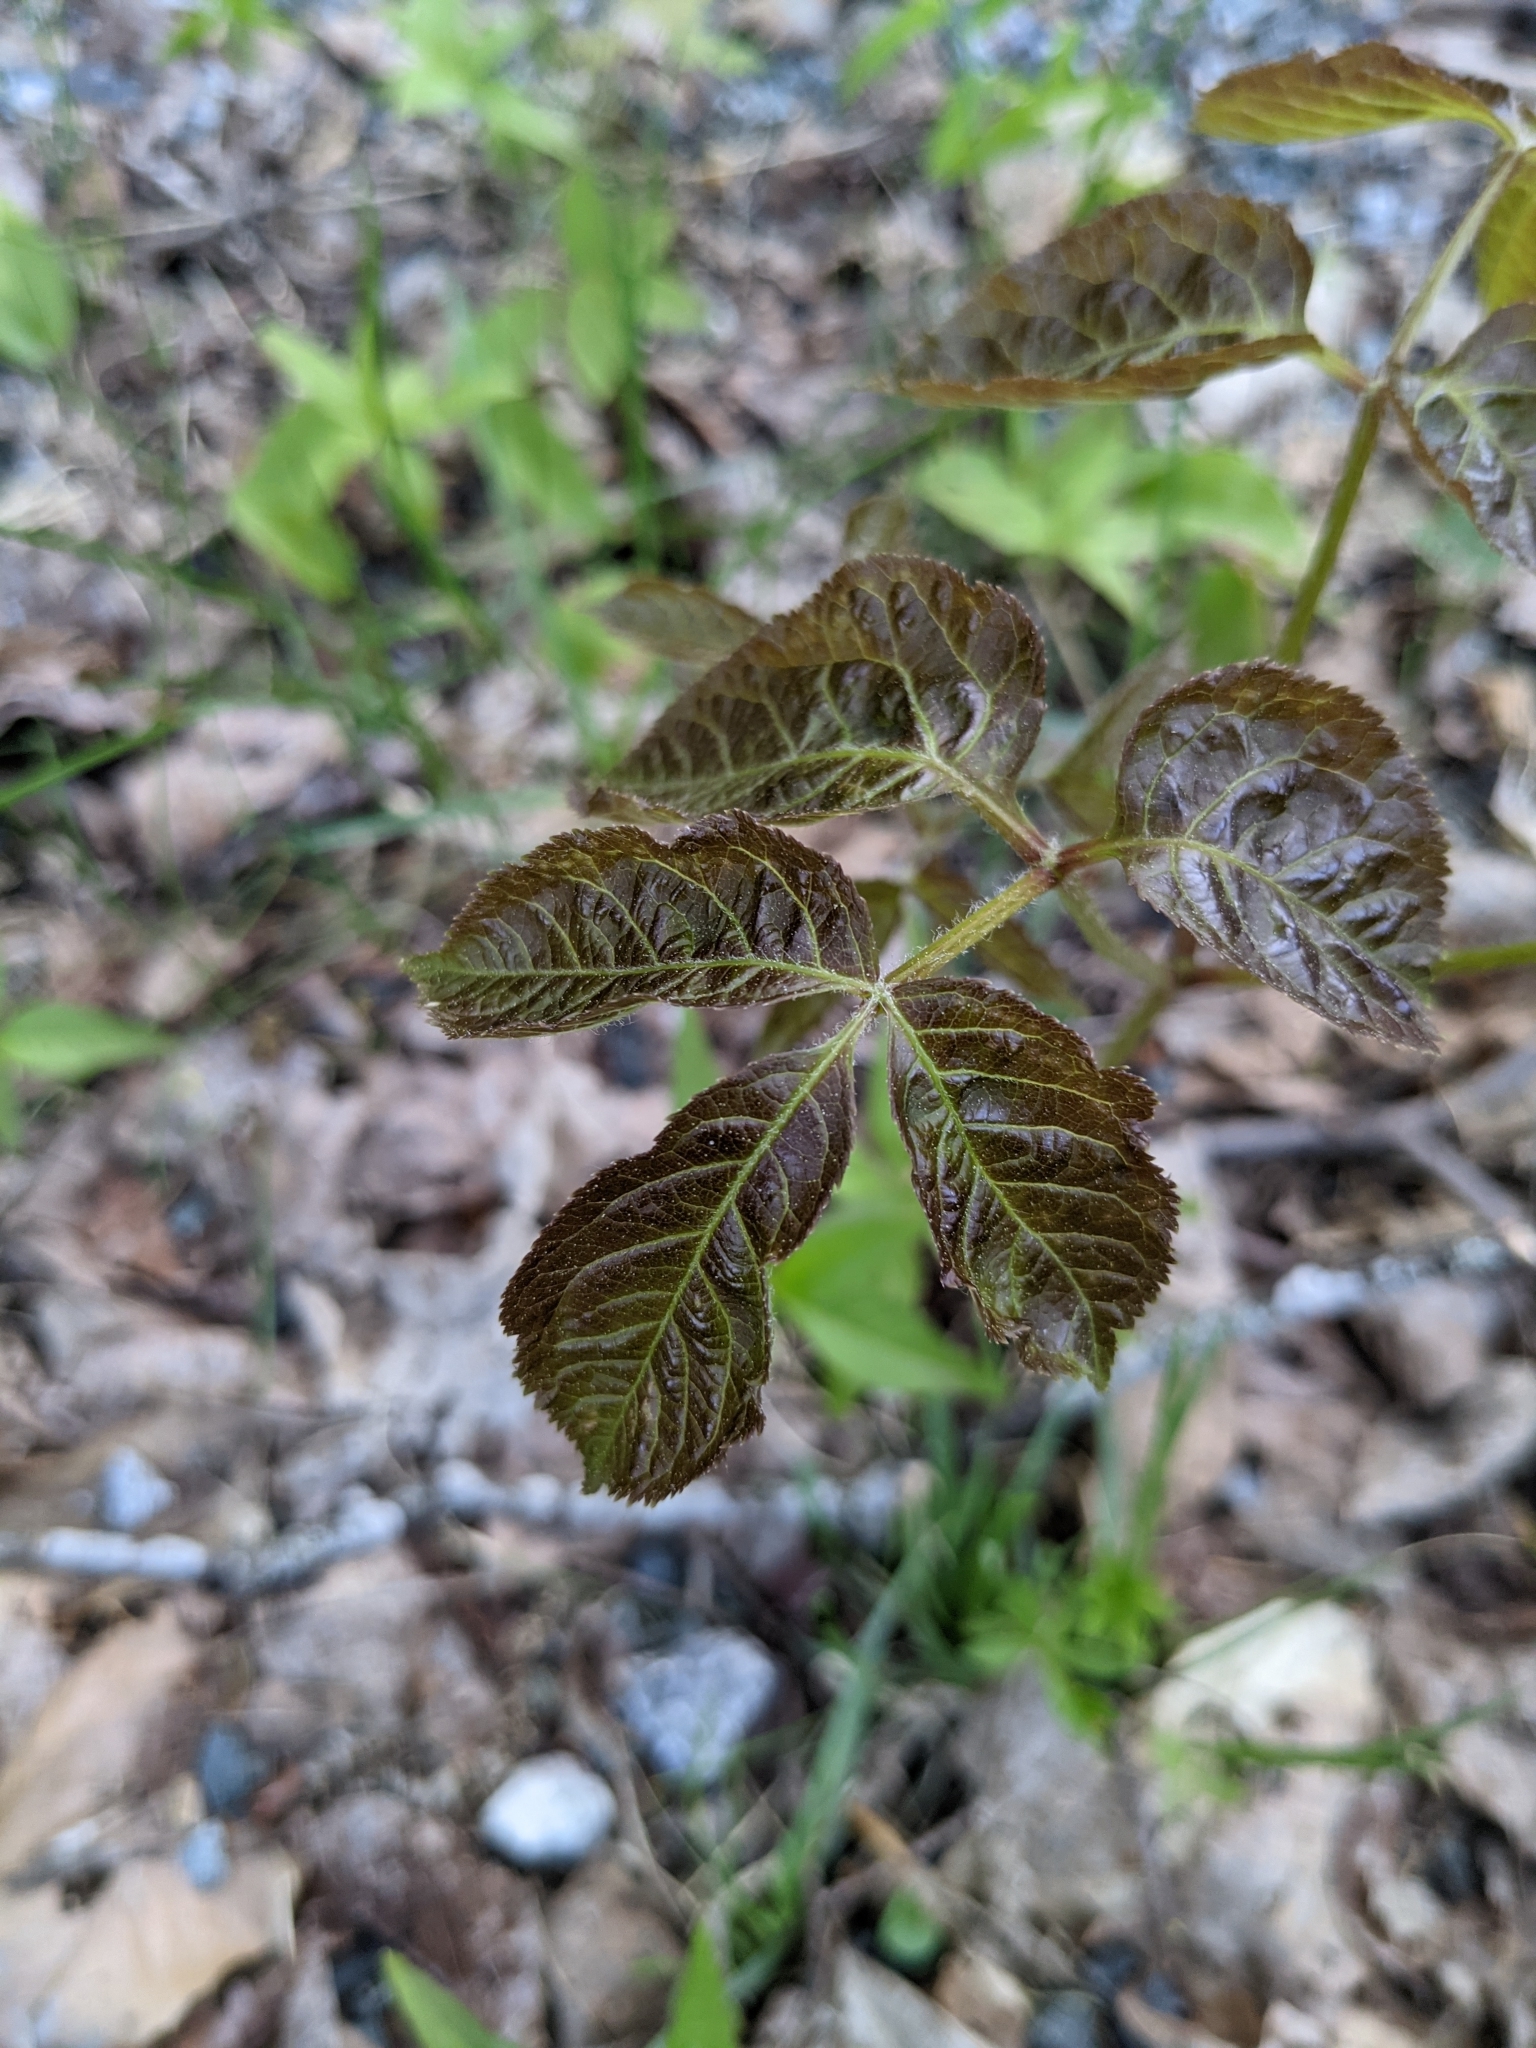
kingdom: Plantae
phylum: Tracheophyta
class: Magnoliopsida
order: Apiales
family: Araliaceae
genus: Aralia
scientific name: Aralia nudicaulis
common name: Wild sarsaparilla
